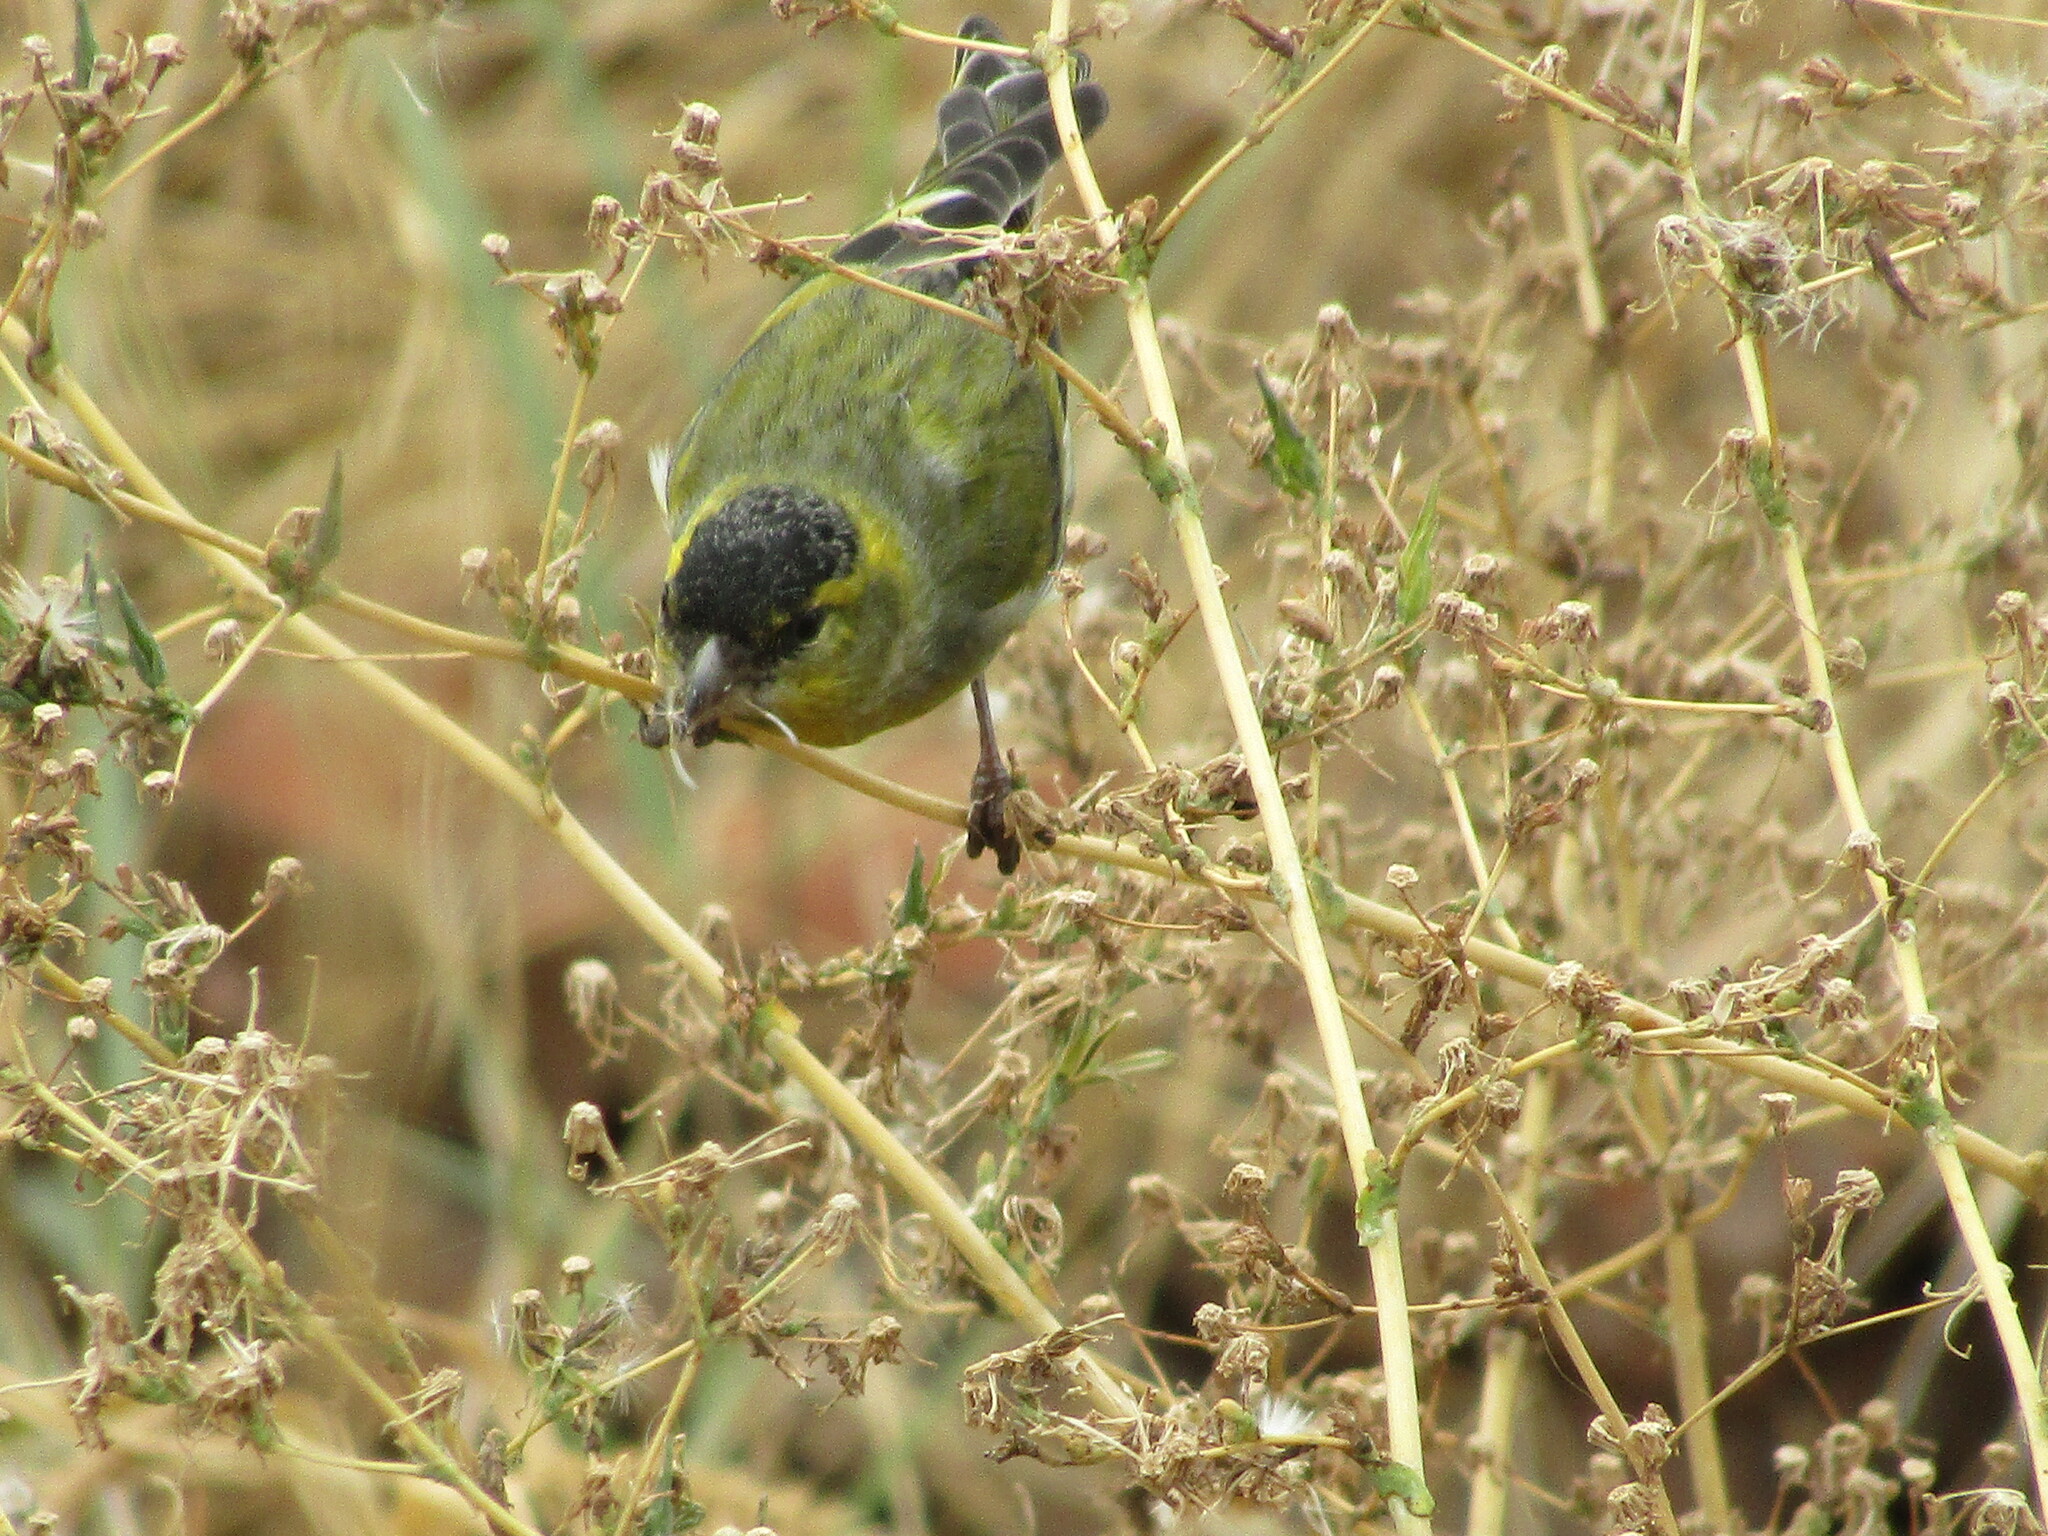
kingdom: Animalia
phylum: Chordata
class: Aves
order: Passeriformes
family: Fringillidae
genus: Spinus
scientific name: Spinus spinus
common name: Eurasian siskin
